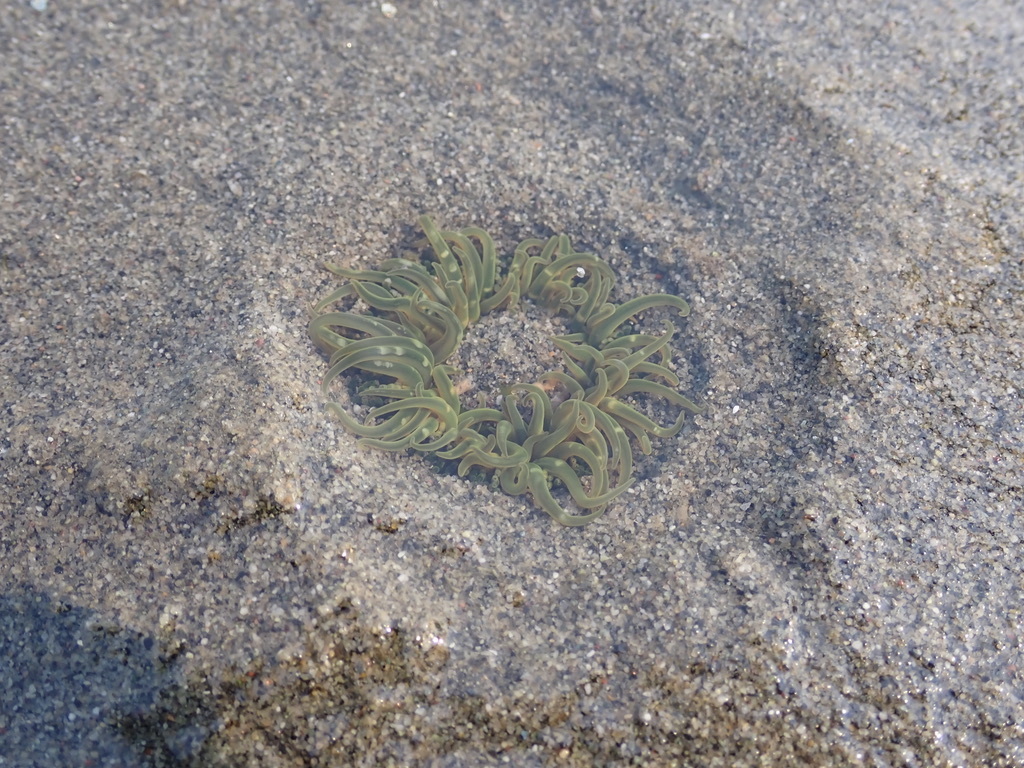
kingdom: Animalia
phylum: Cnidaria
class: Anthozoa
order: Actiniaria
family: Actiniidae
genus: Anthopleura
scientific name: Anthopleura artemisia
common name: Buried sea anemone
